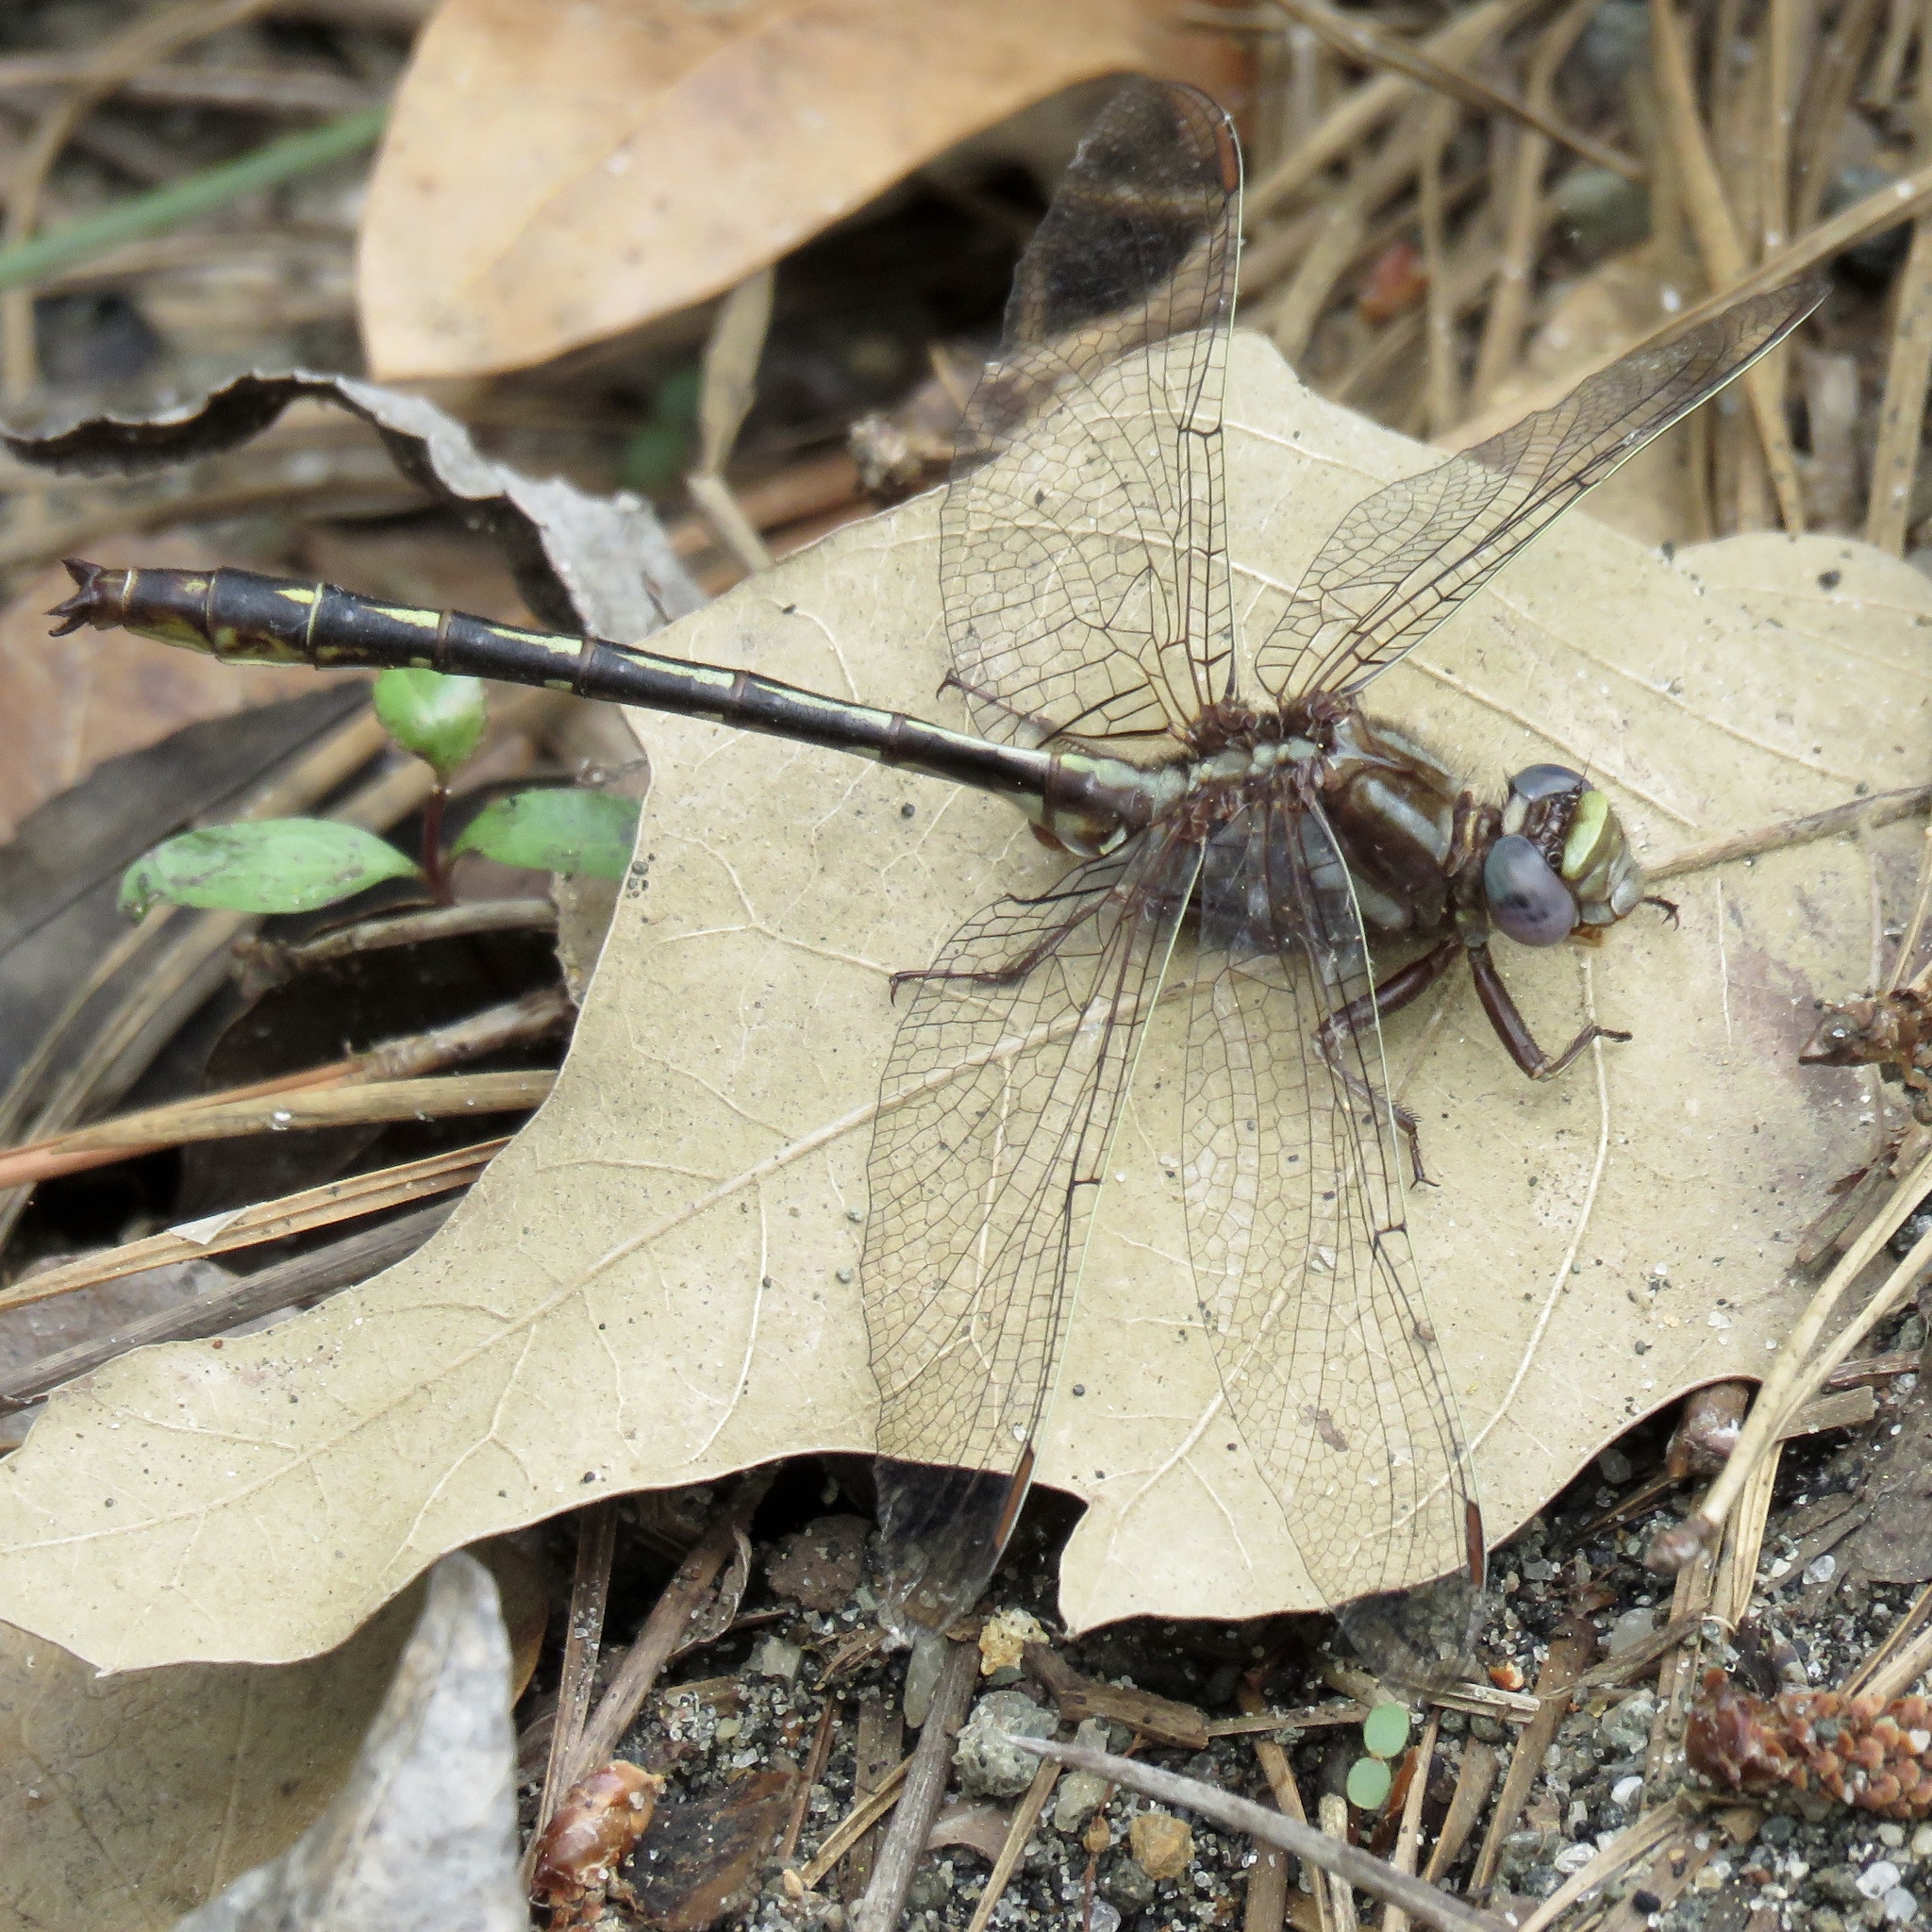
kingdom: Animalia
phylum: Arthropoda
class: Insecta
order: Odonata
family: Gomphidae
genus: Phanogomphus
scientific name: Phanogomphus lividus
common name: Ashy clubtail
